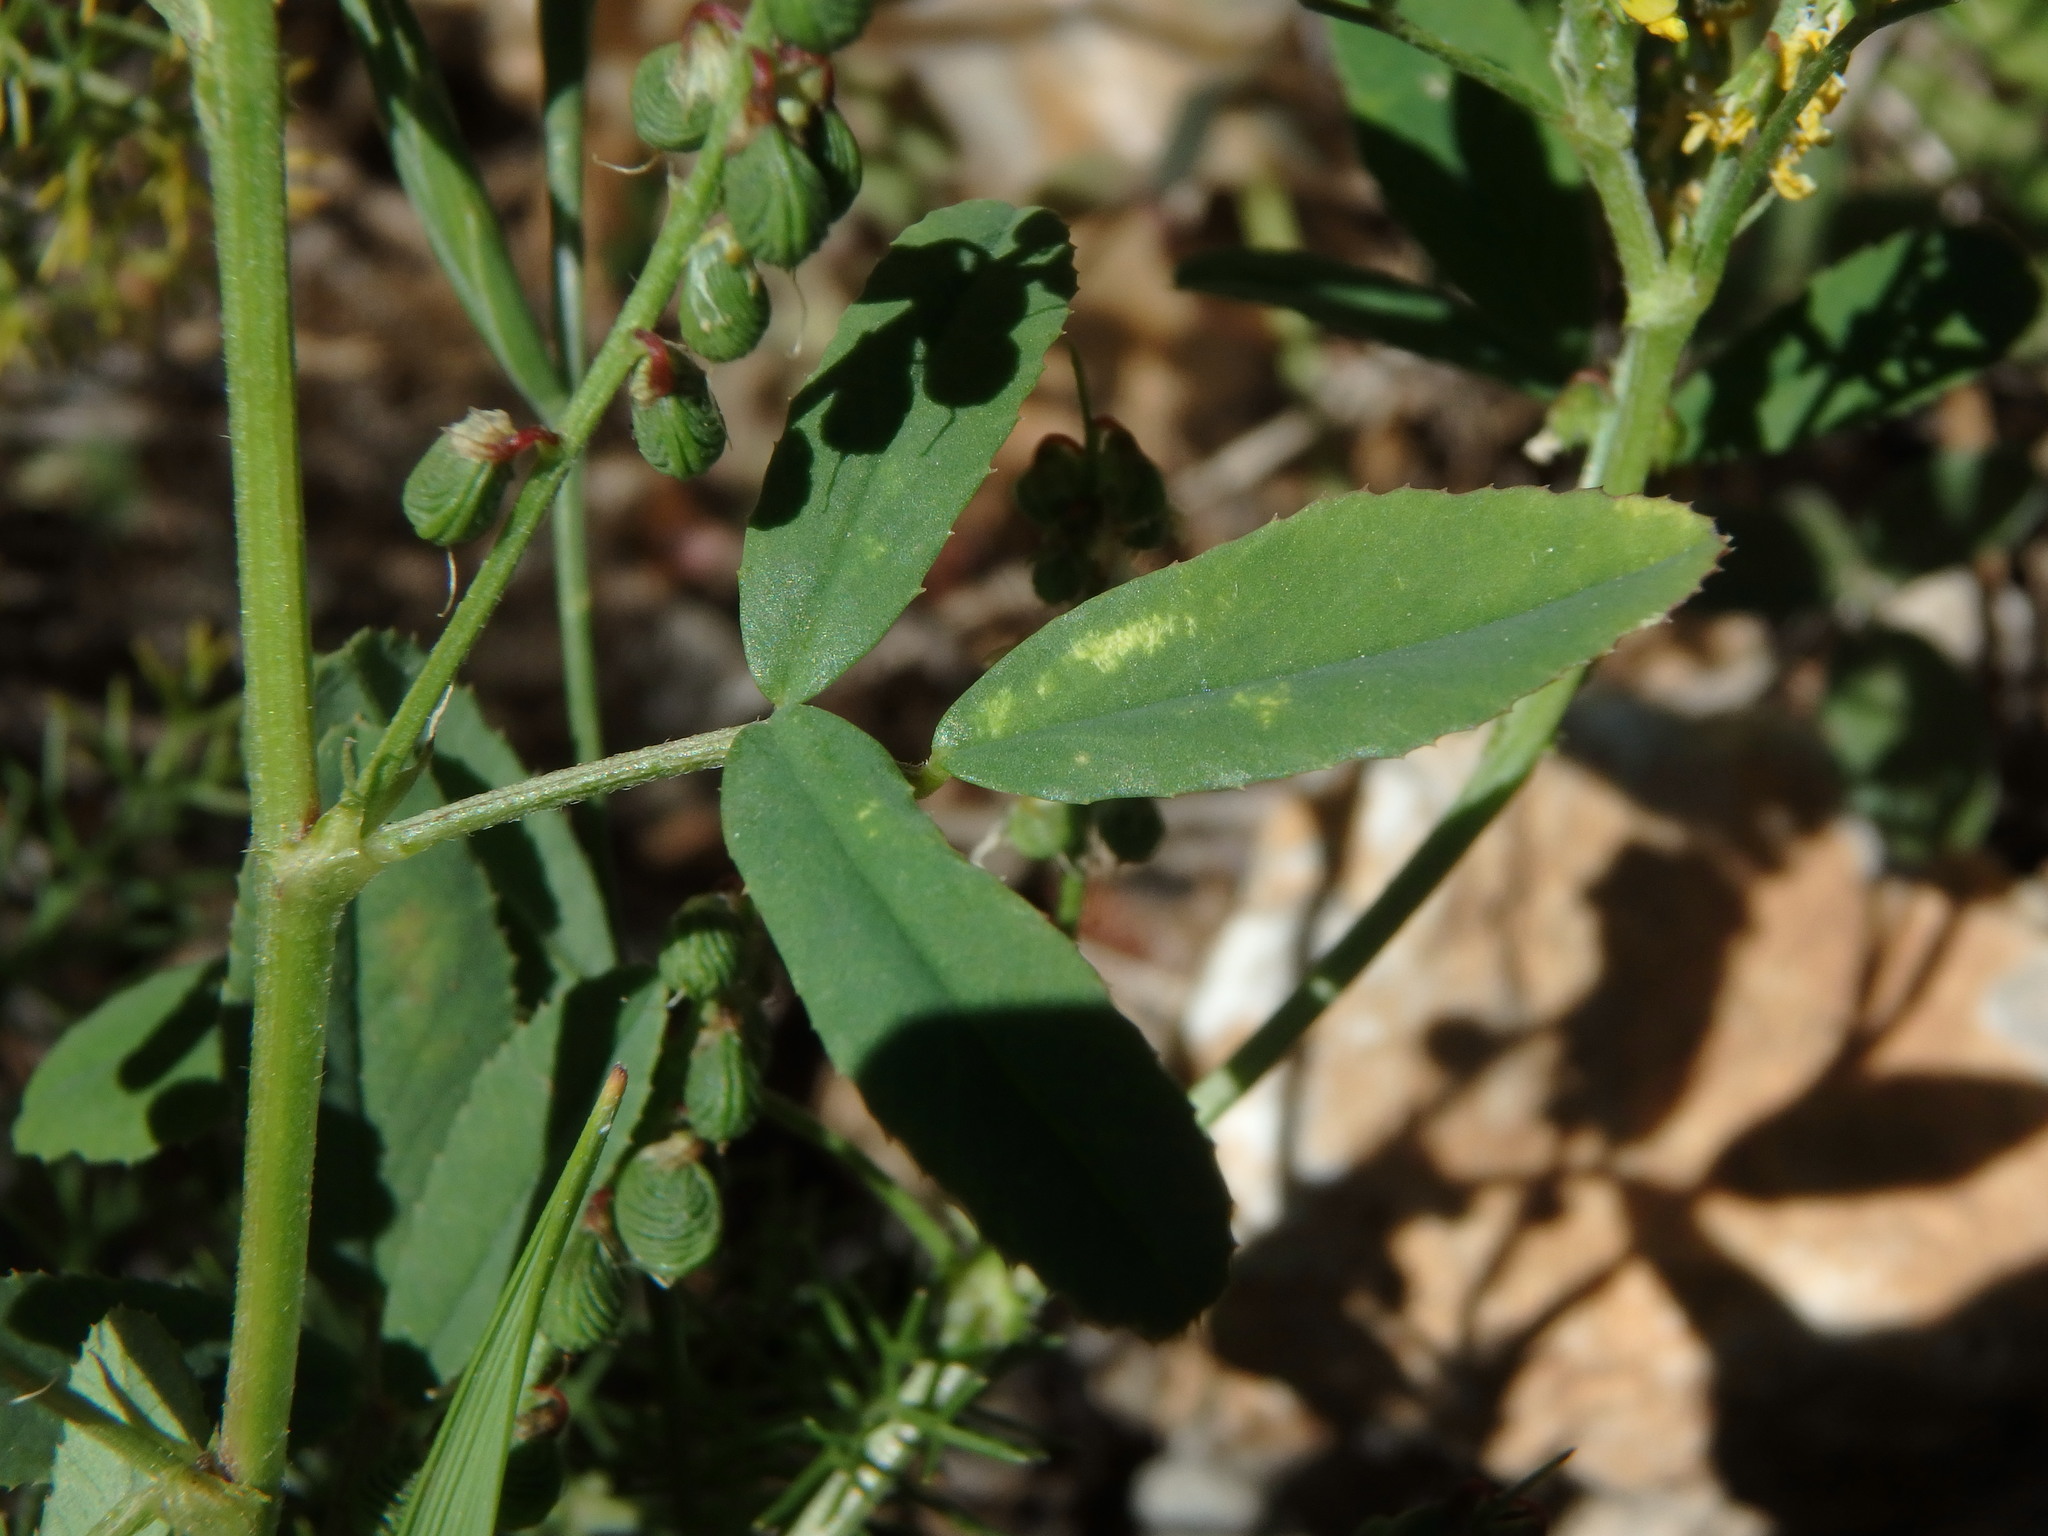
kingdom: Plantae
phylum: Tracheophyta
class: Magnoliopsida
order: Fabales
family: Fabaceae
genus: Melilotus
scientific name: Melilotus sulcatus
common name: Furrowed melilot
